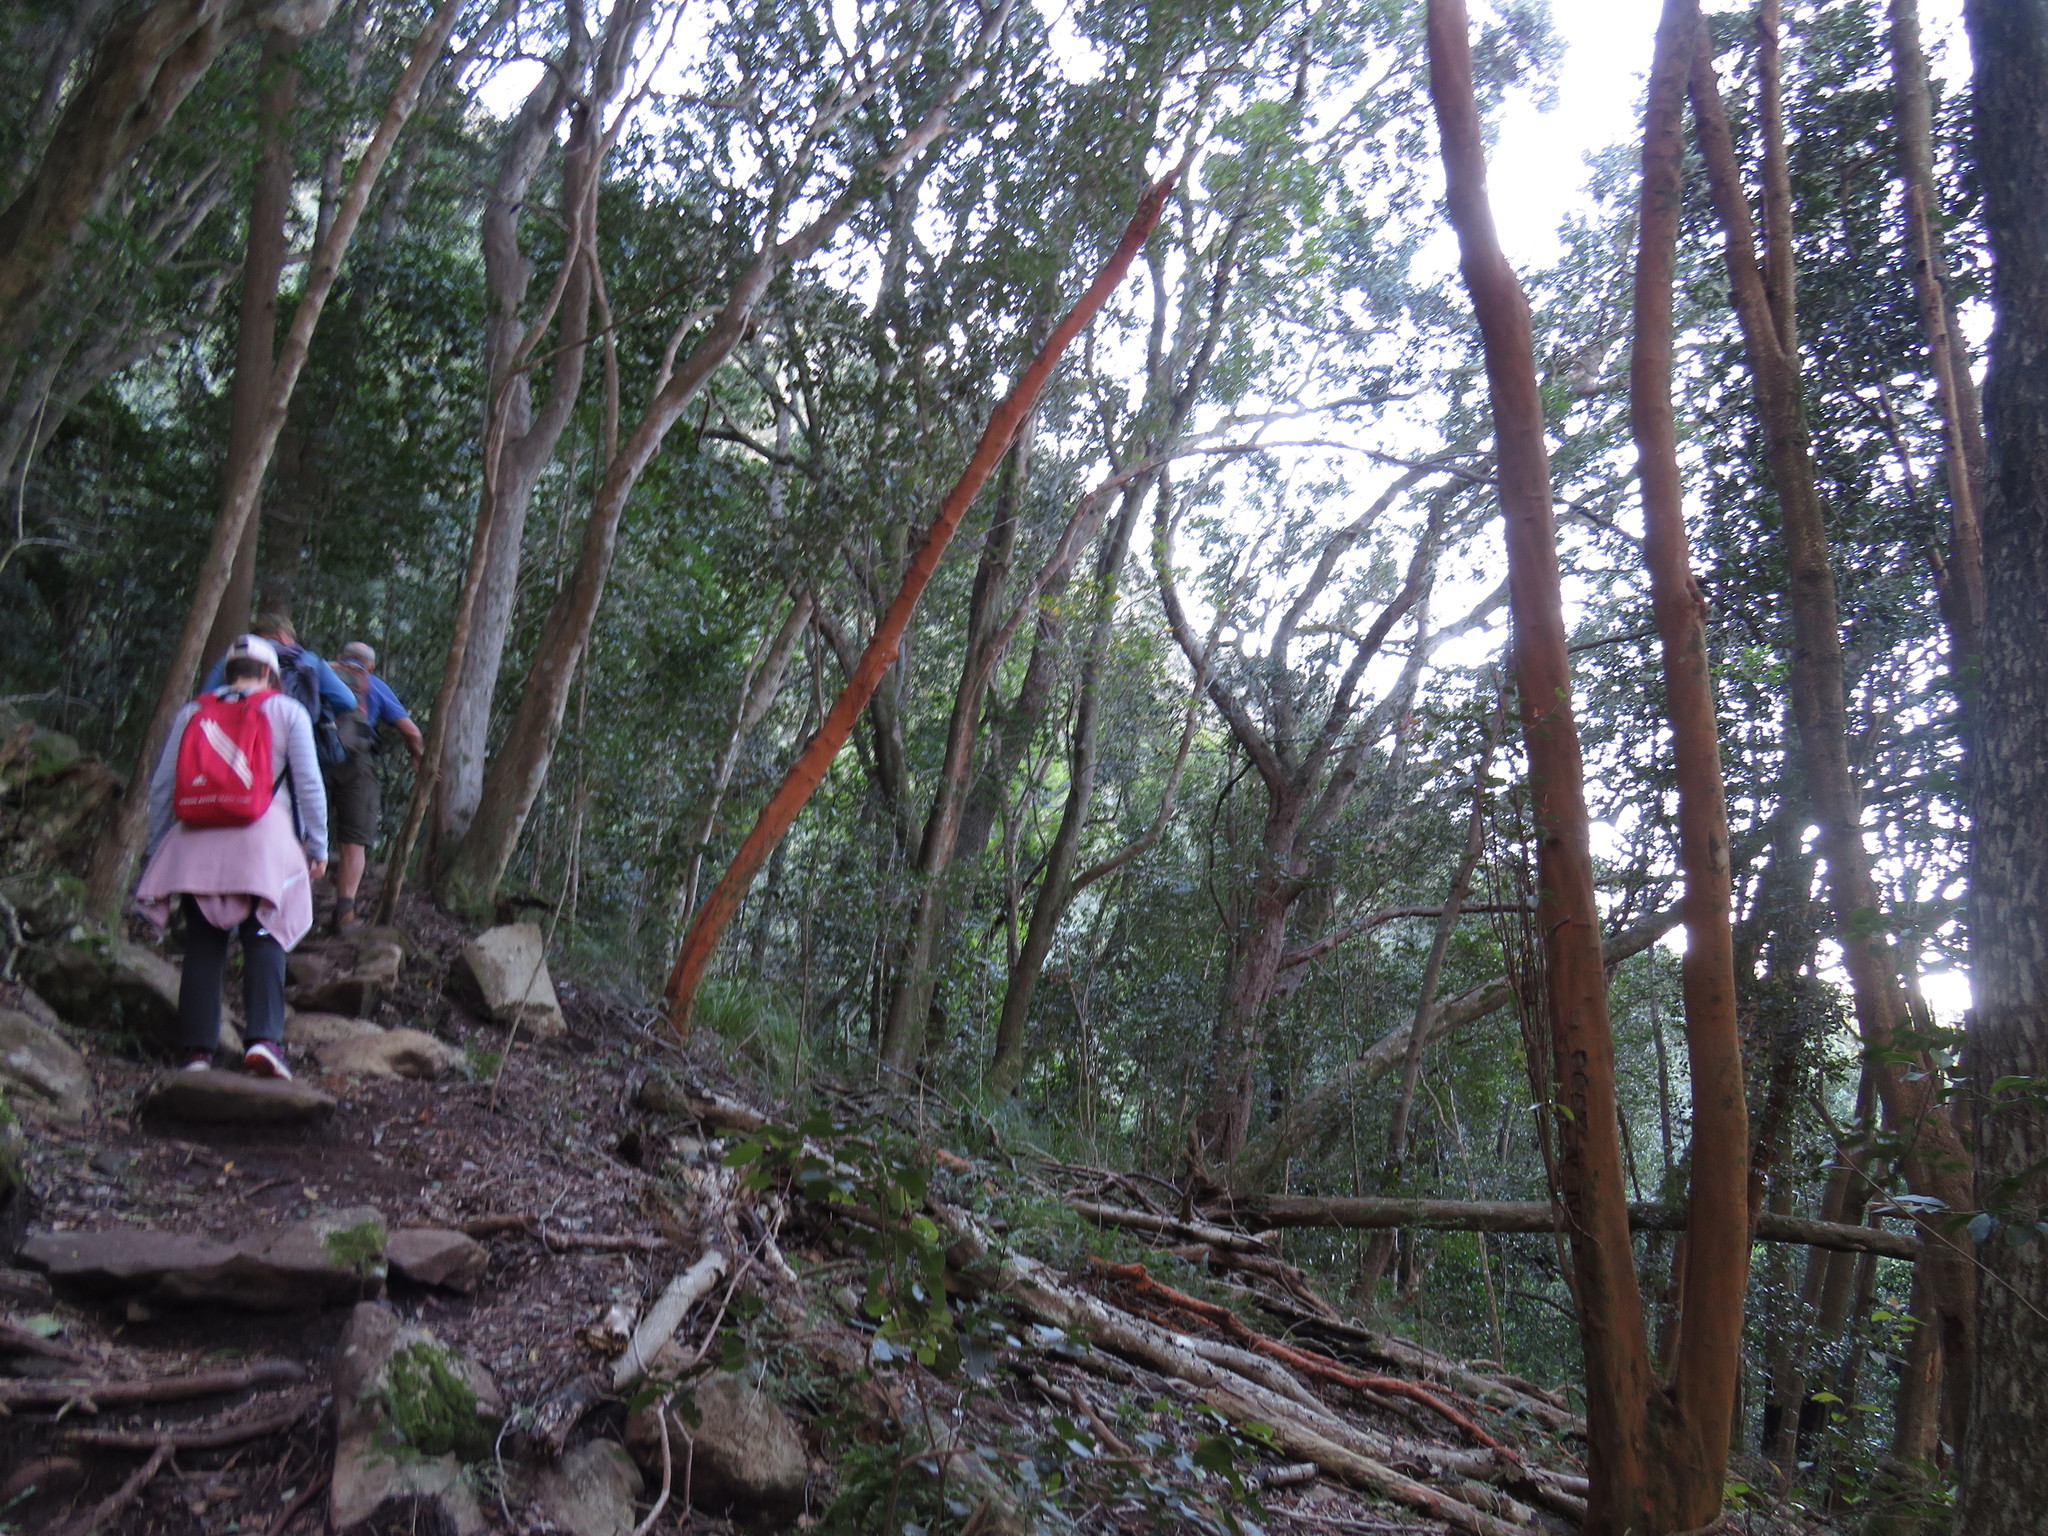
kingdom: Plantae
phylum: Tracheophyta
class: Magnoliopsida
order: Celastrales
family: Celastraceae
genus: Cassine
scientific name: Cassine peragua
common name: Cape saffron
